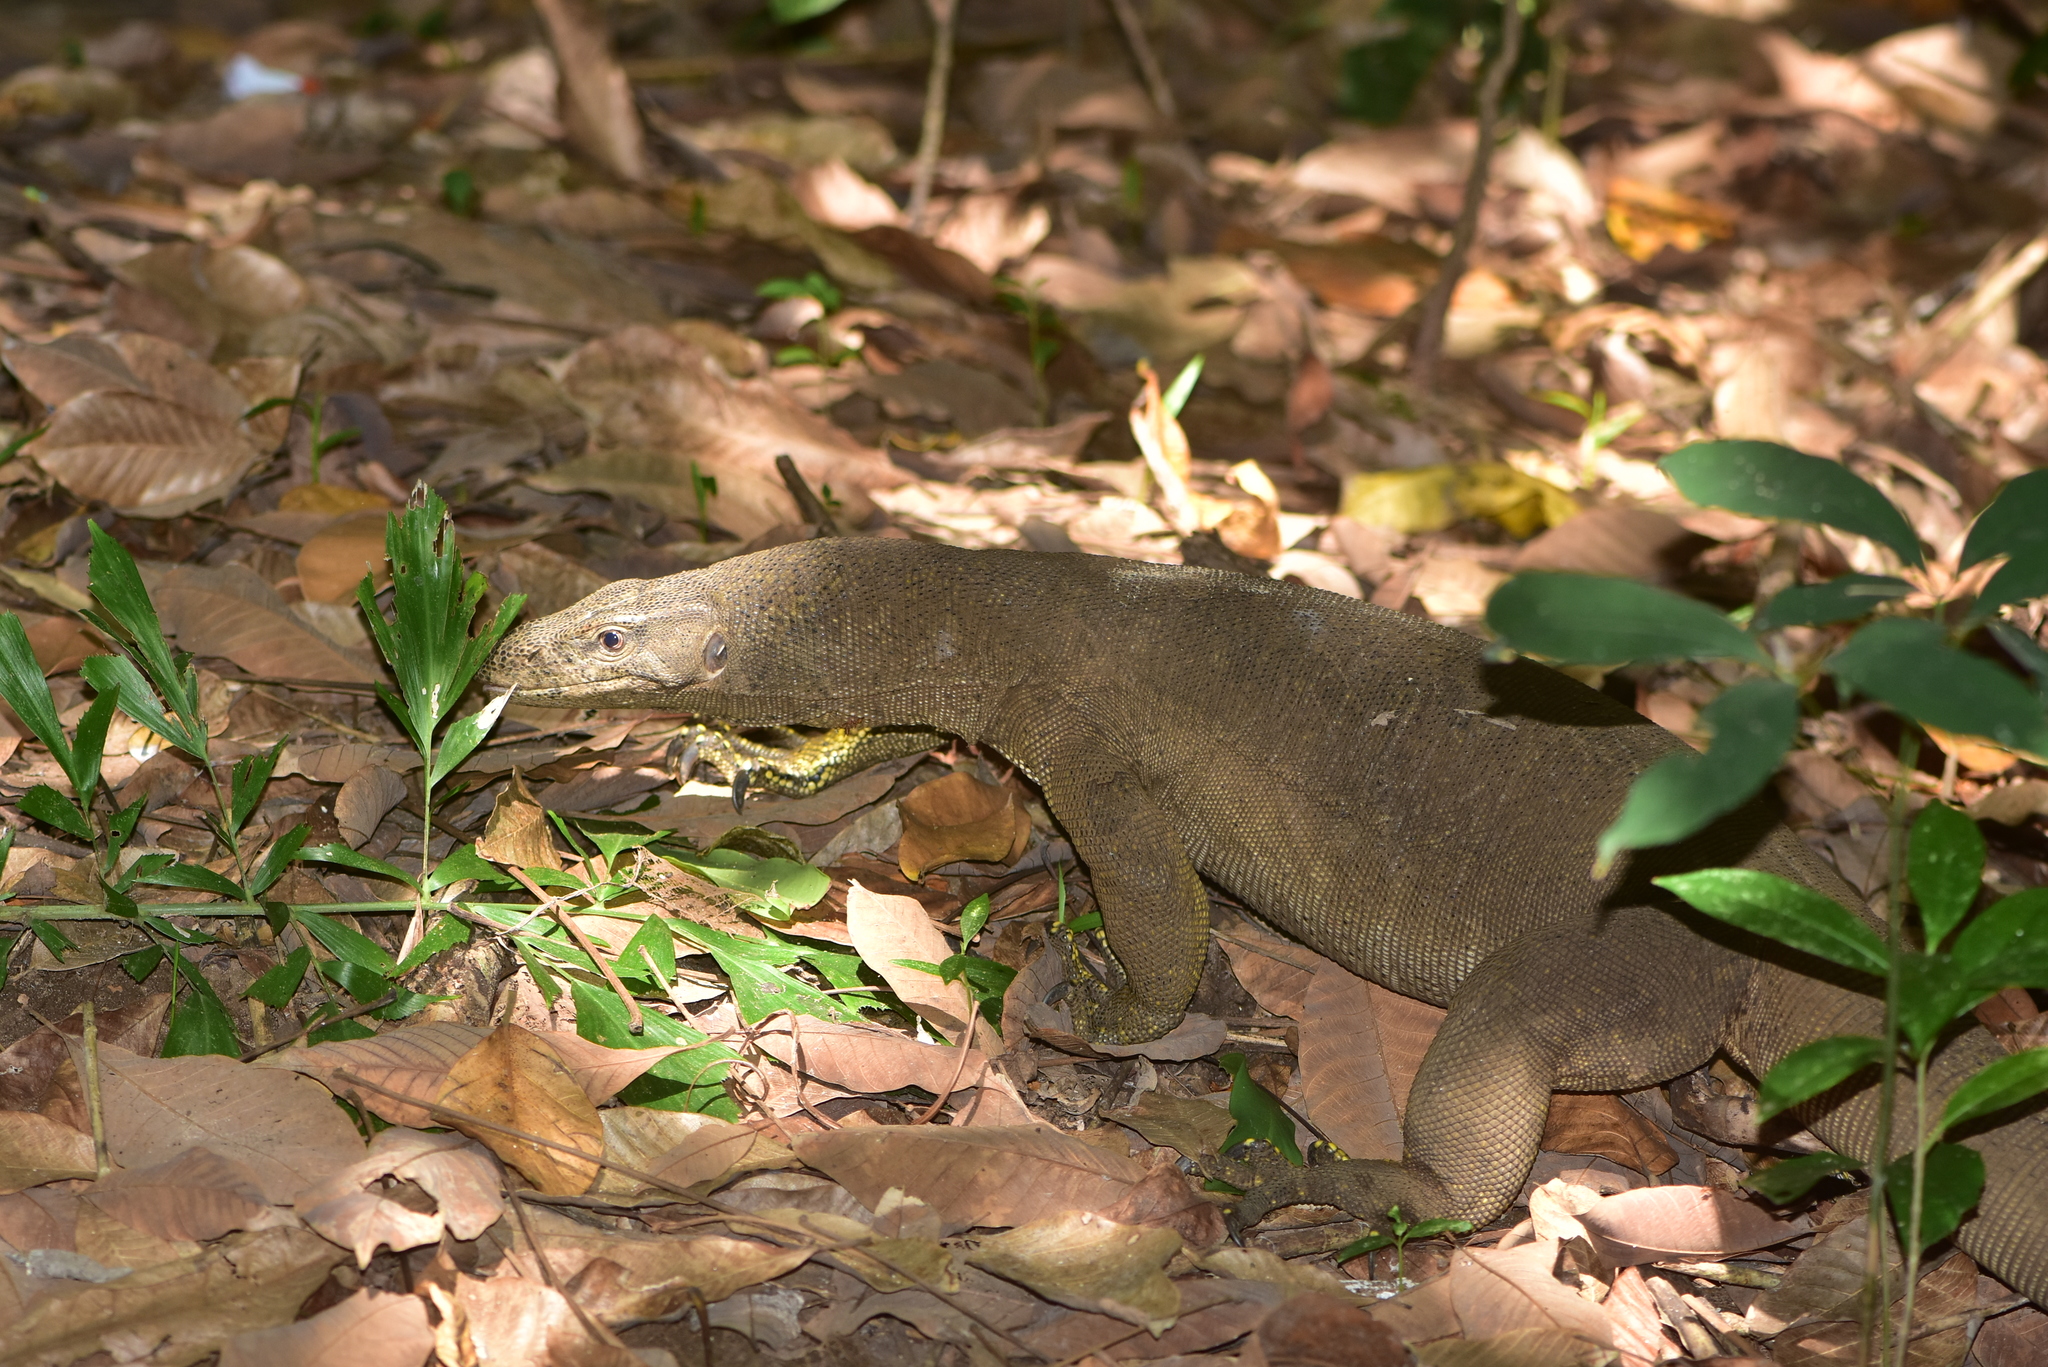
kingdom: Animalia
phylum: Chordata
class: Squamata
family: Varanidae
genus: Varanus
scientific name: Varanus bengalensis
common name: Bengal monitor
